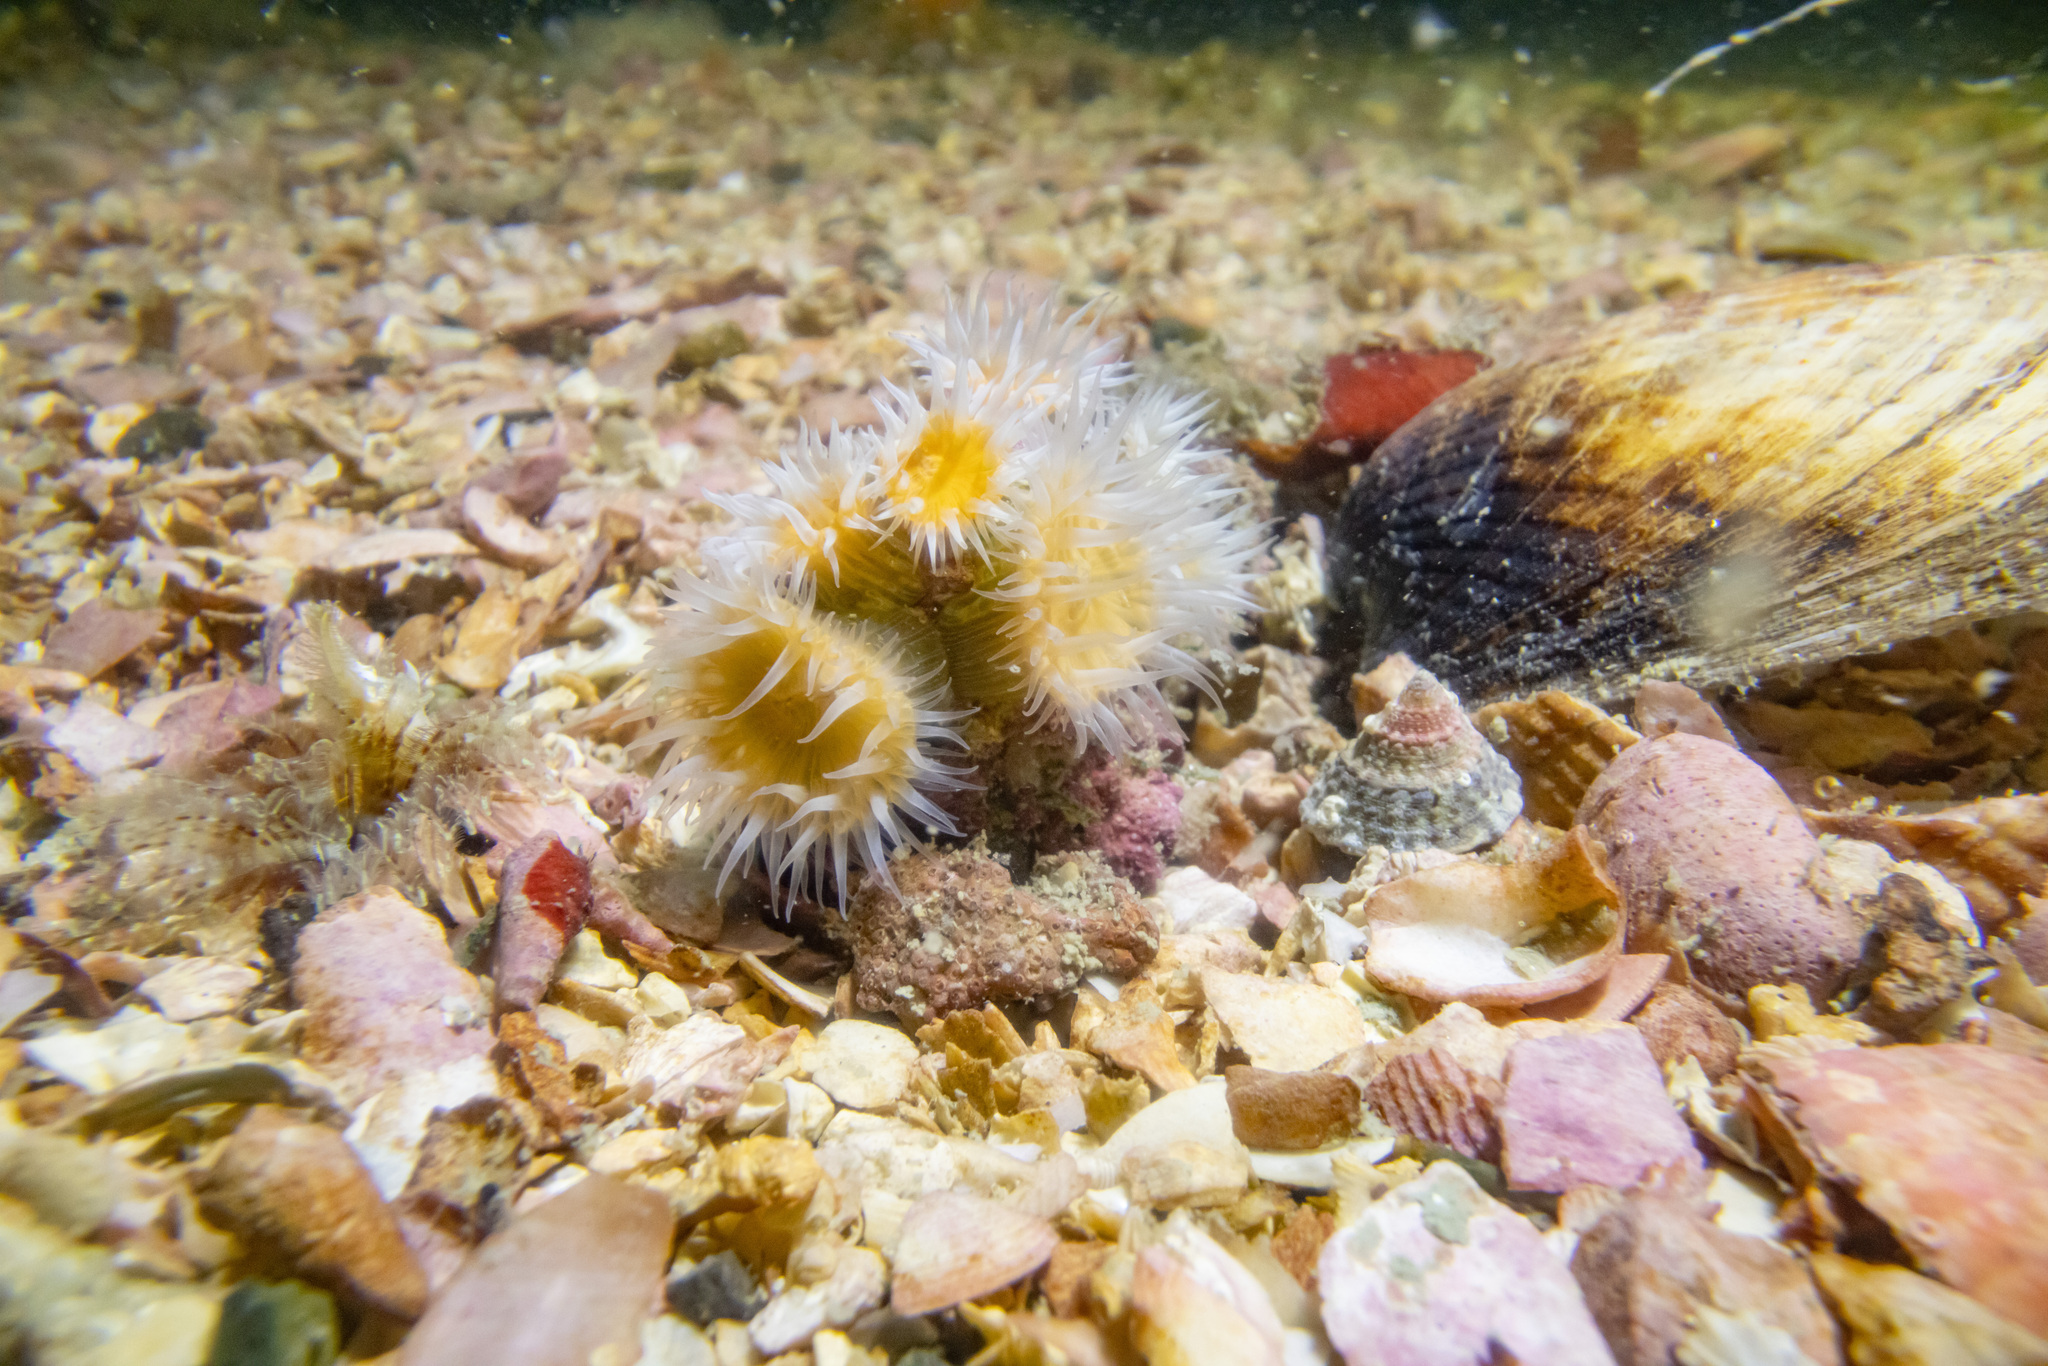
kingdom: Animalia
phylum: Cnidaria
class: Anthozoa
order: Actiniaria
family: Sagartiidae
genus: Anthothoe
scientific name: Anthothoe albocincta
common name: Orange striped anemone
